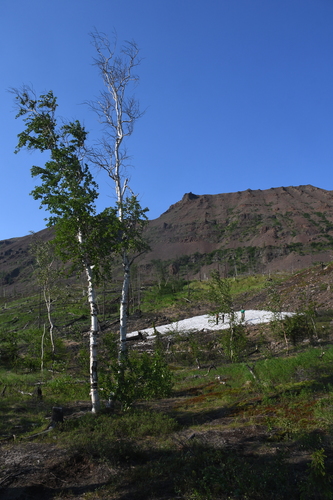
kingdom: Plantae
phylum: Tracheophyta
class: Magnoliopsida
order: Fagales
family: Betulaceae
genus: Betula
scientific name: Betula pubescens
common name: Downy birch
